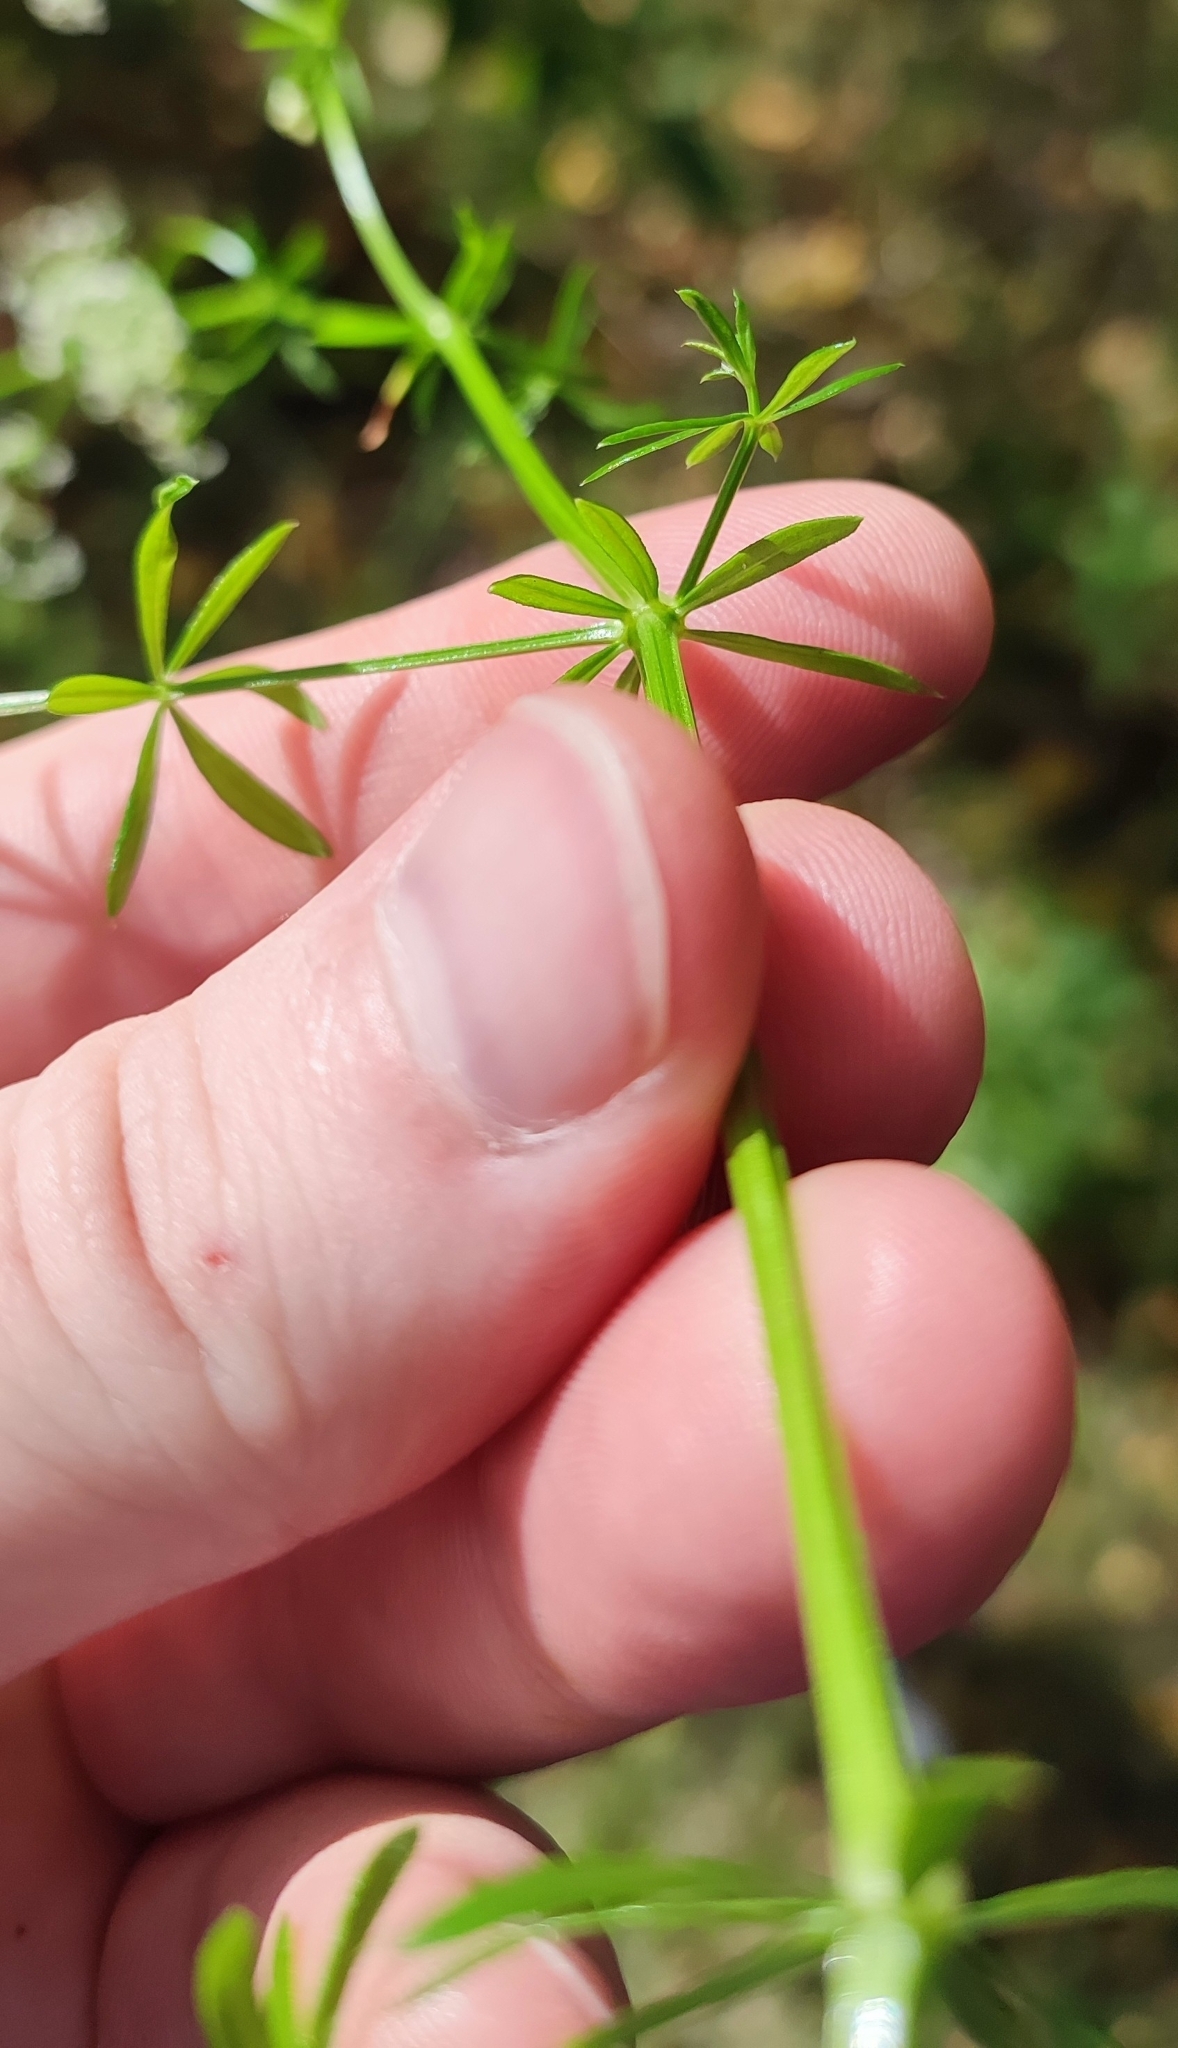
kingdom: Plantae
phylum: Tracheophyta
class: Magnoliopsida
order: Gentianales
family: Rubiaceae
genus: Galium
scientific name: Galium mollugo
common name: Hedge bedstraw
